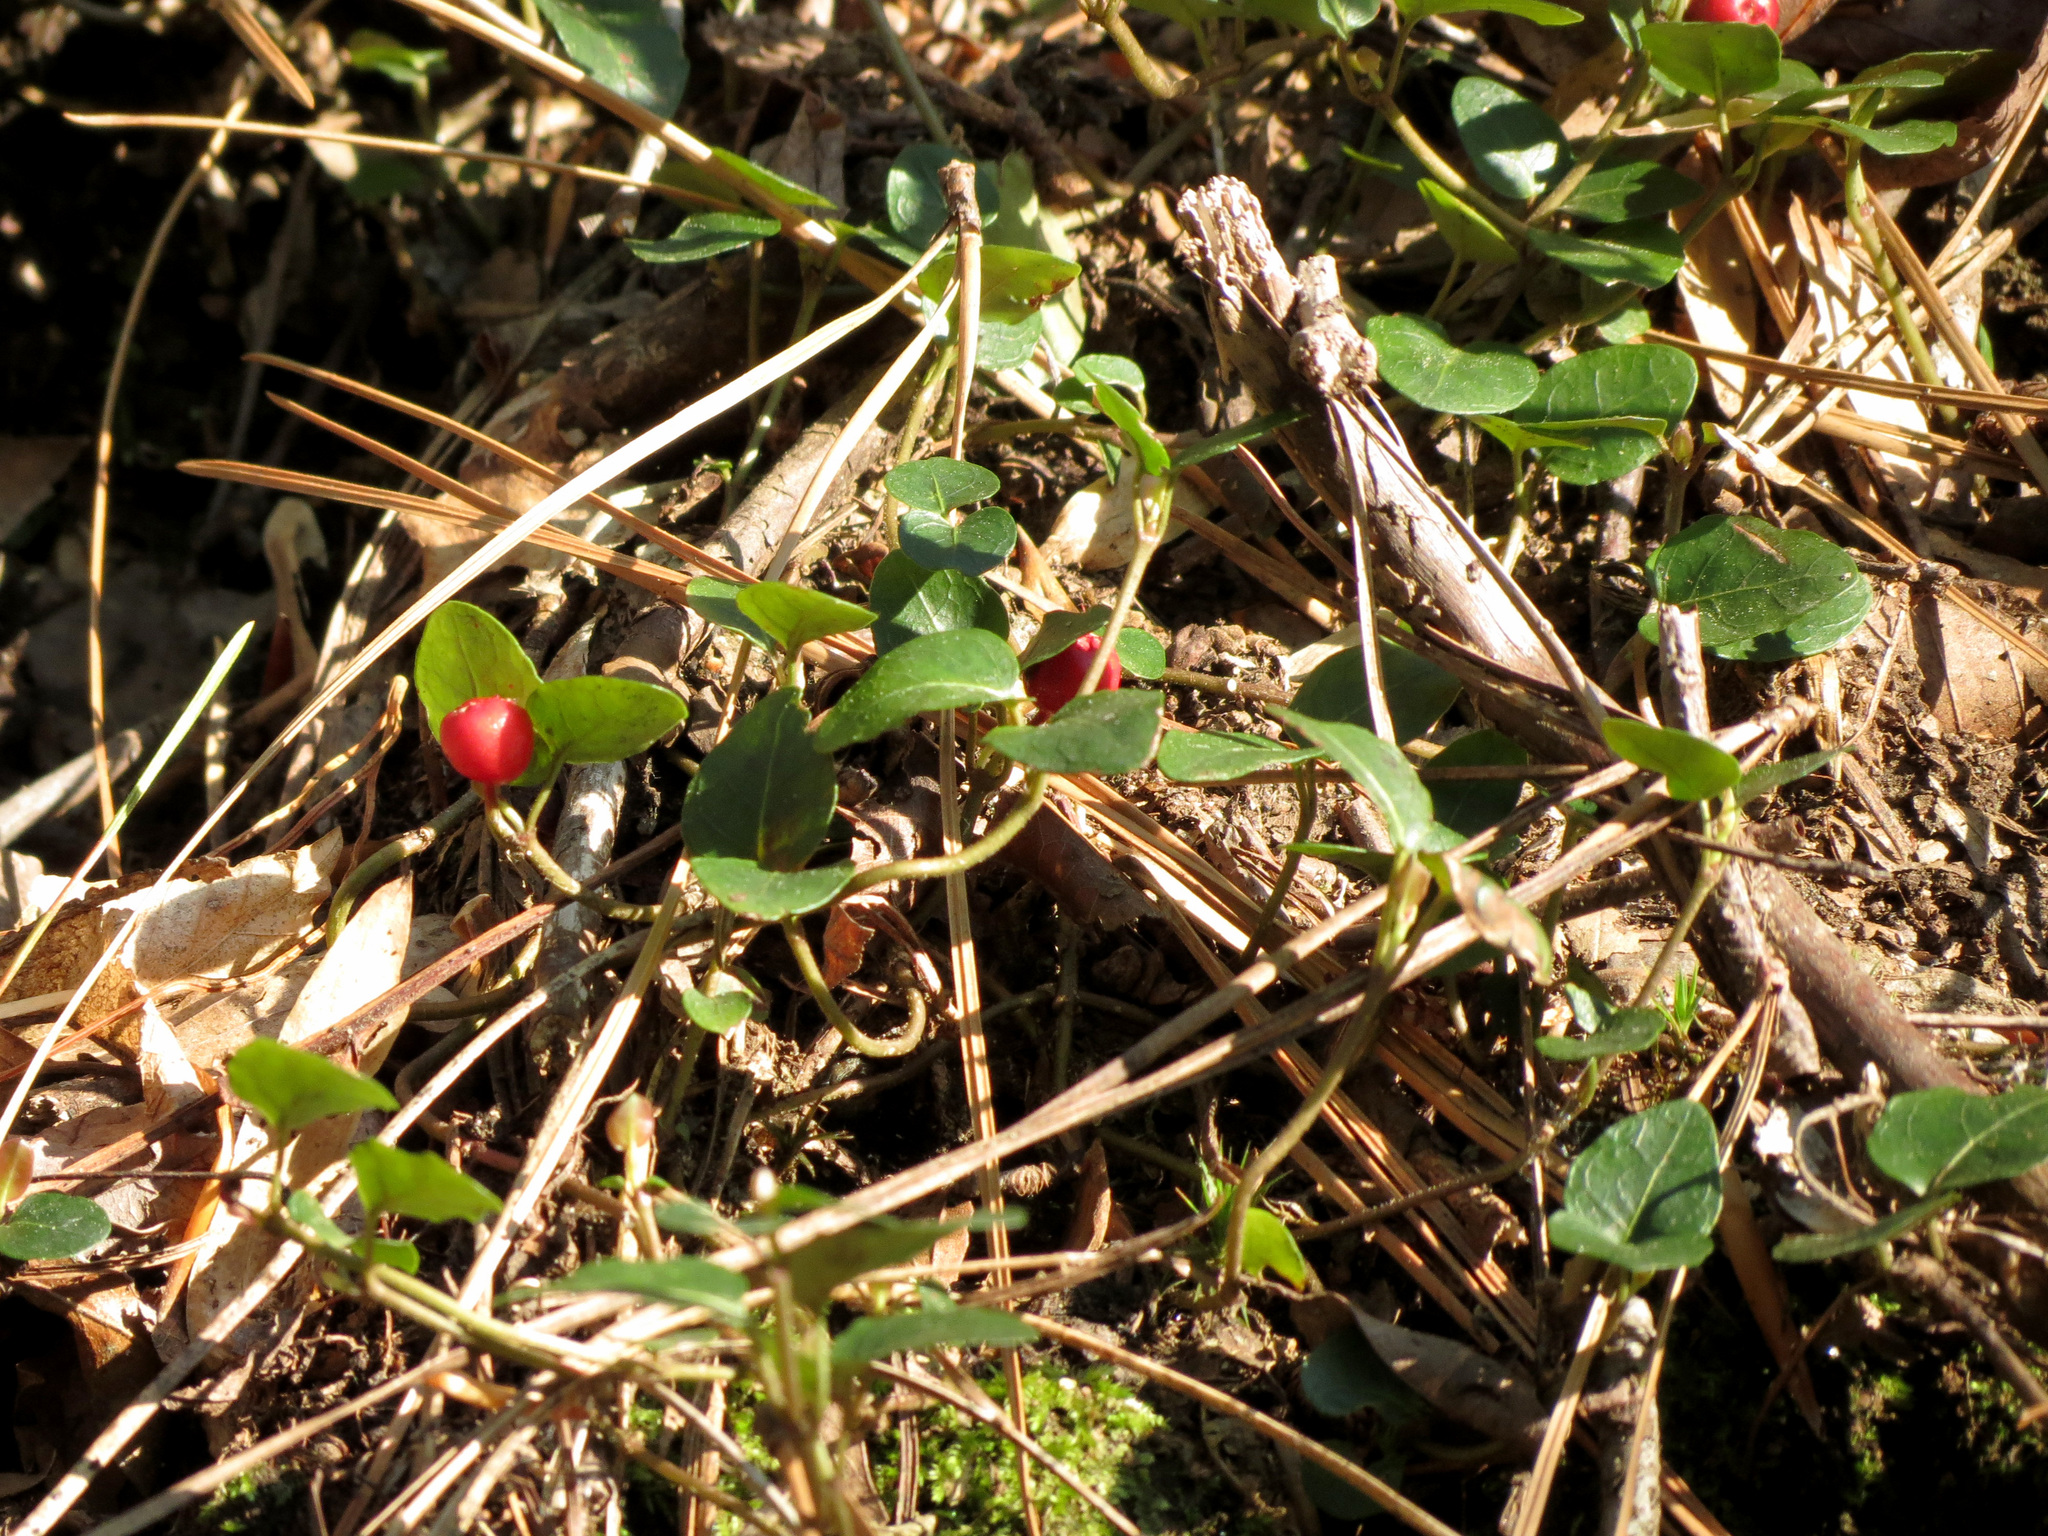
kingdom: Plantae
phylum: Tracheophyta
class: Magnoliopsida
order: Gentianales
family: Rubiaceae
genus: Mitchella
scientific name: Mitchella repens
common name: Partridge-berry
